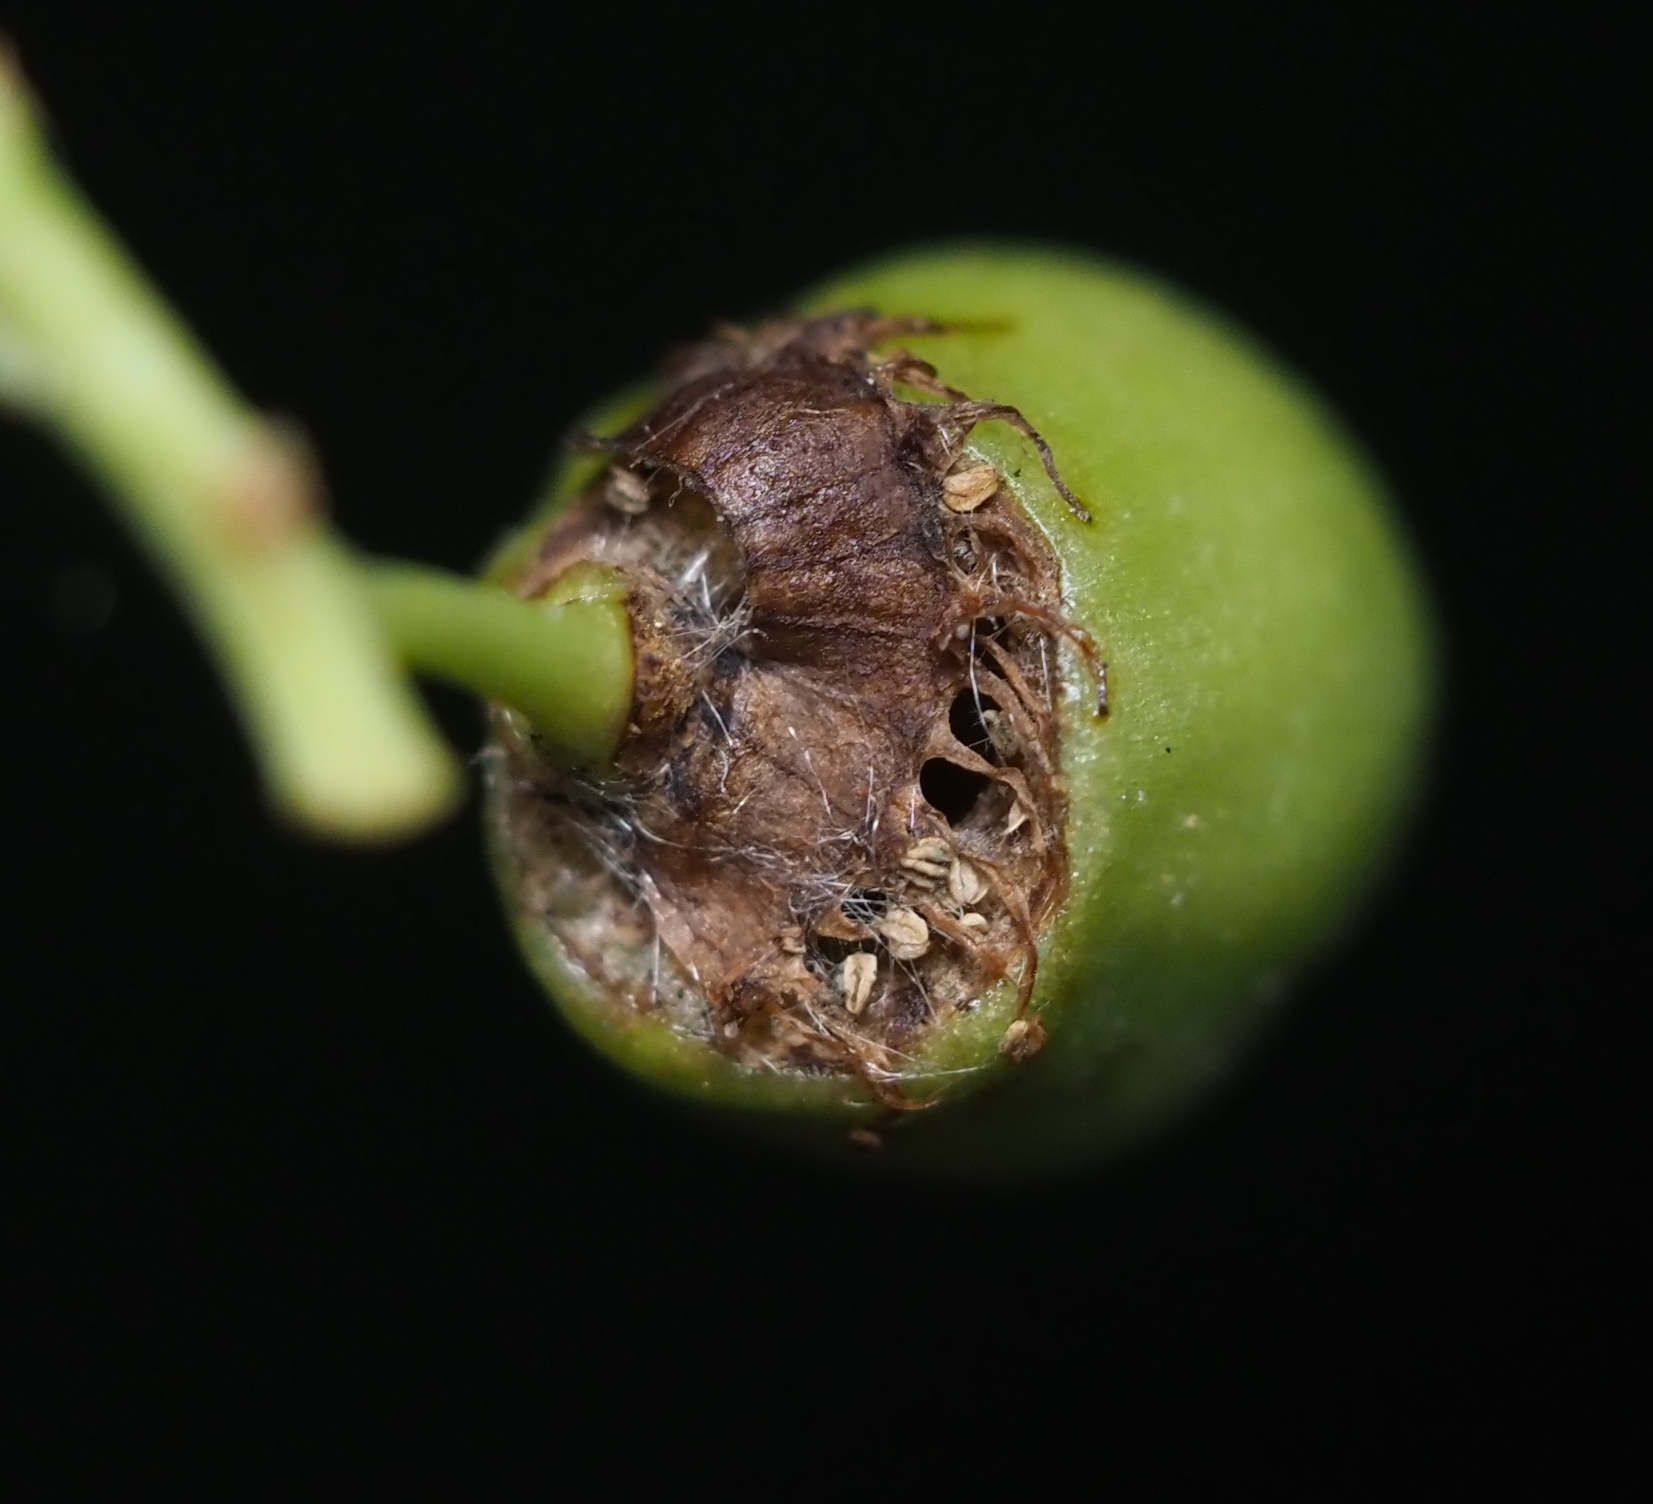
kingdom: Animalia
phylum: Arthropoda
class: Insecta
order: Diptera
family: Cecidomyiidae
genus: Contarinia
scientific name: Contarinia virginianiae
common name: Chokecherry midge
